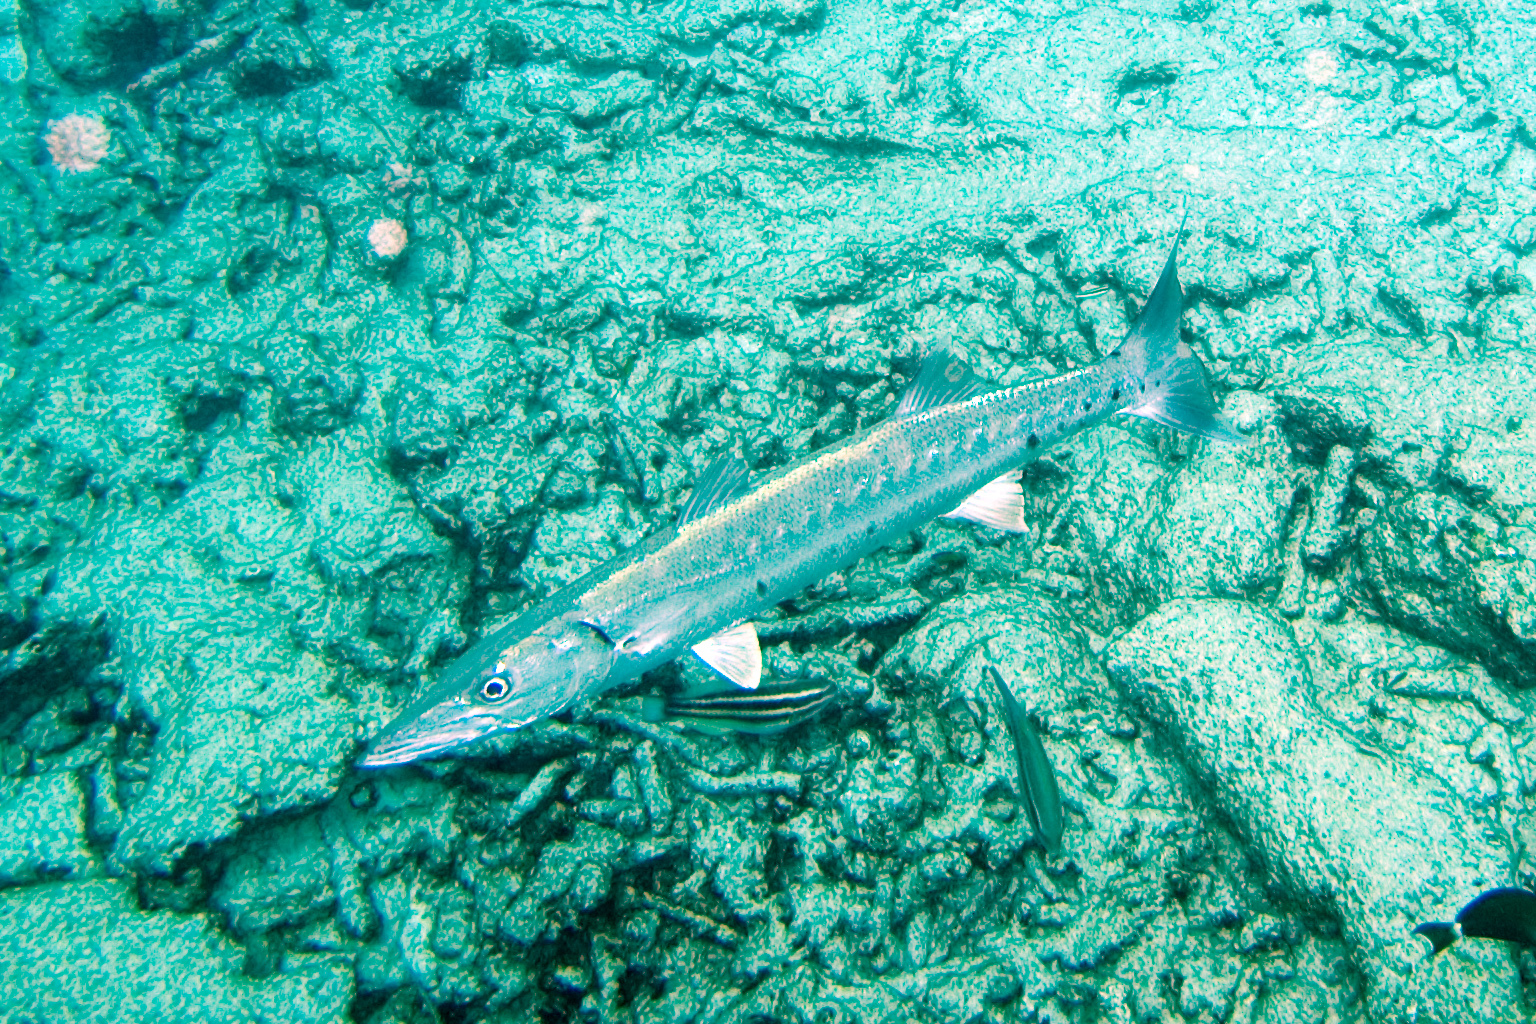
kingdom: Animalia
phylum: Chordata
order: Perciformes
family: Sphyraenidae
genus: Sphyraena
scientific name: Sphyraena barracuda
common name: Great barracuda
